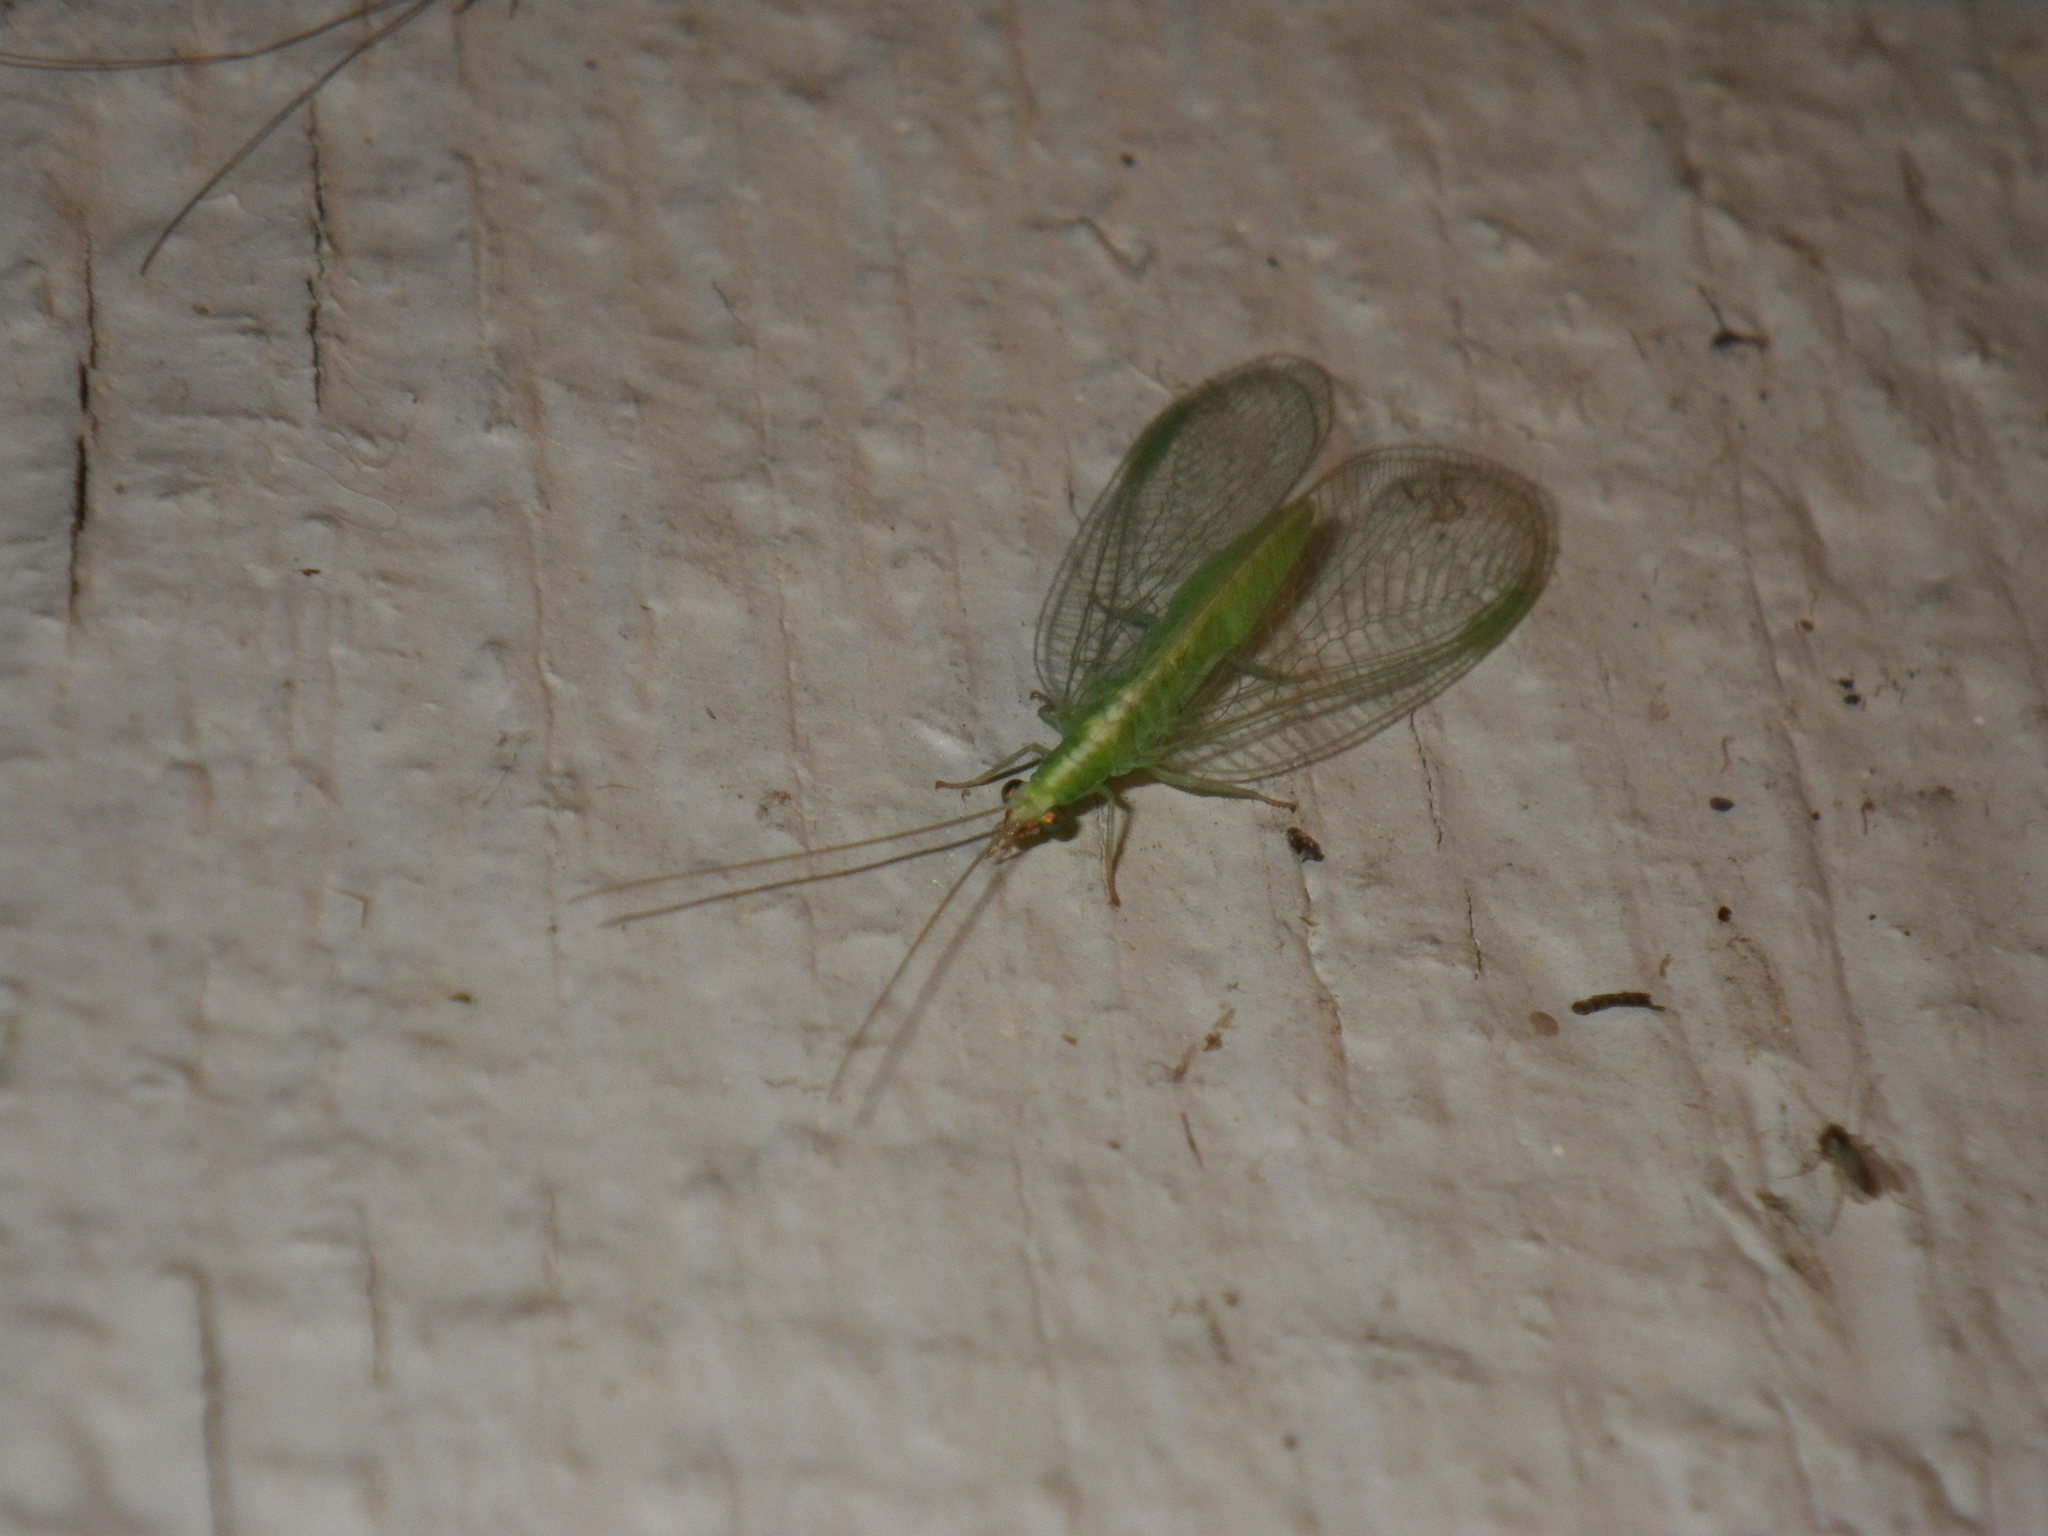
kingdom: Animalia
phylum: Arthropoda
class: Insecta
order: Neuroptera
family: Chrysopidae
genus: Chrysoperla
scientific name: Chrysoperla
